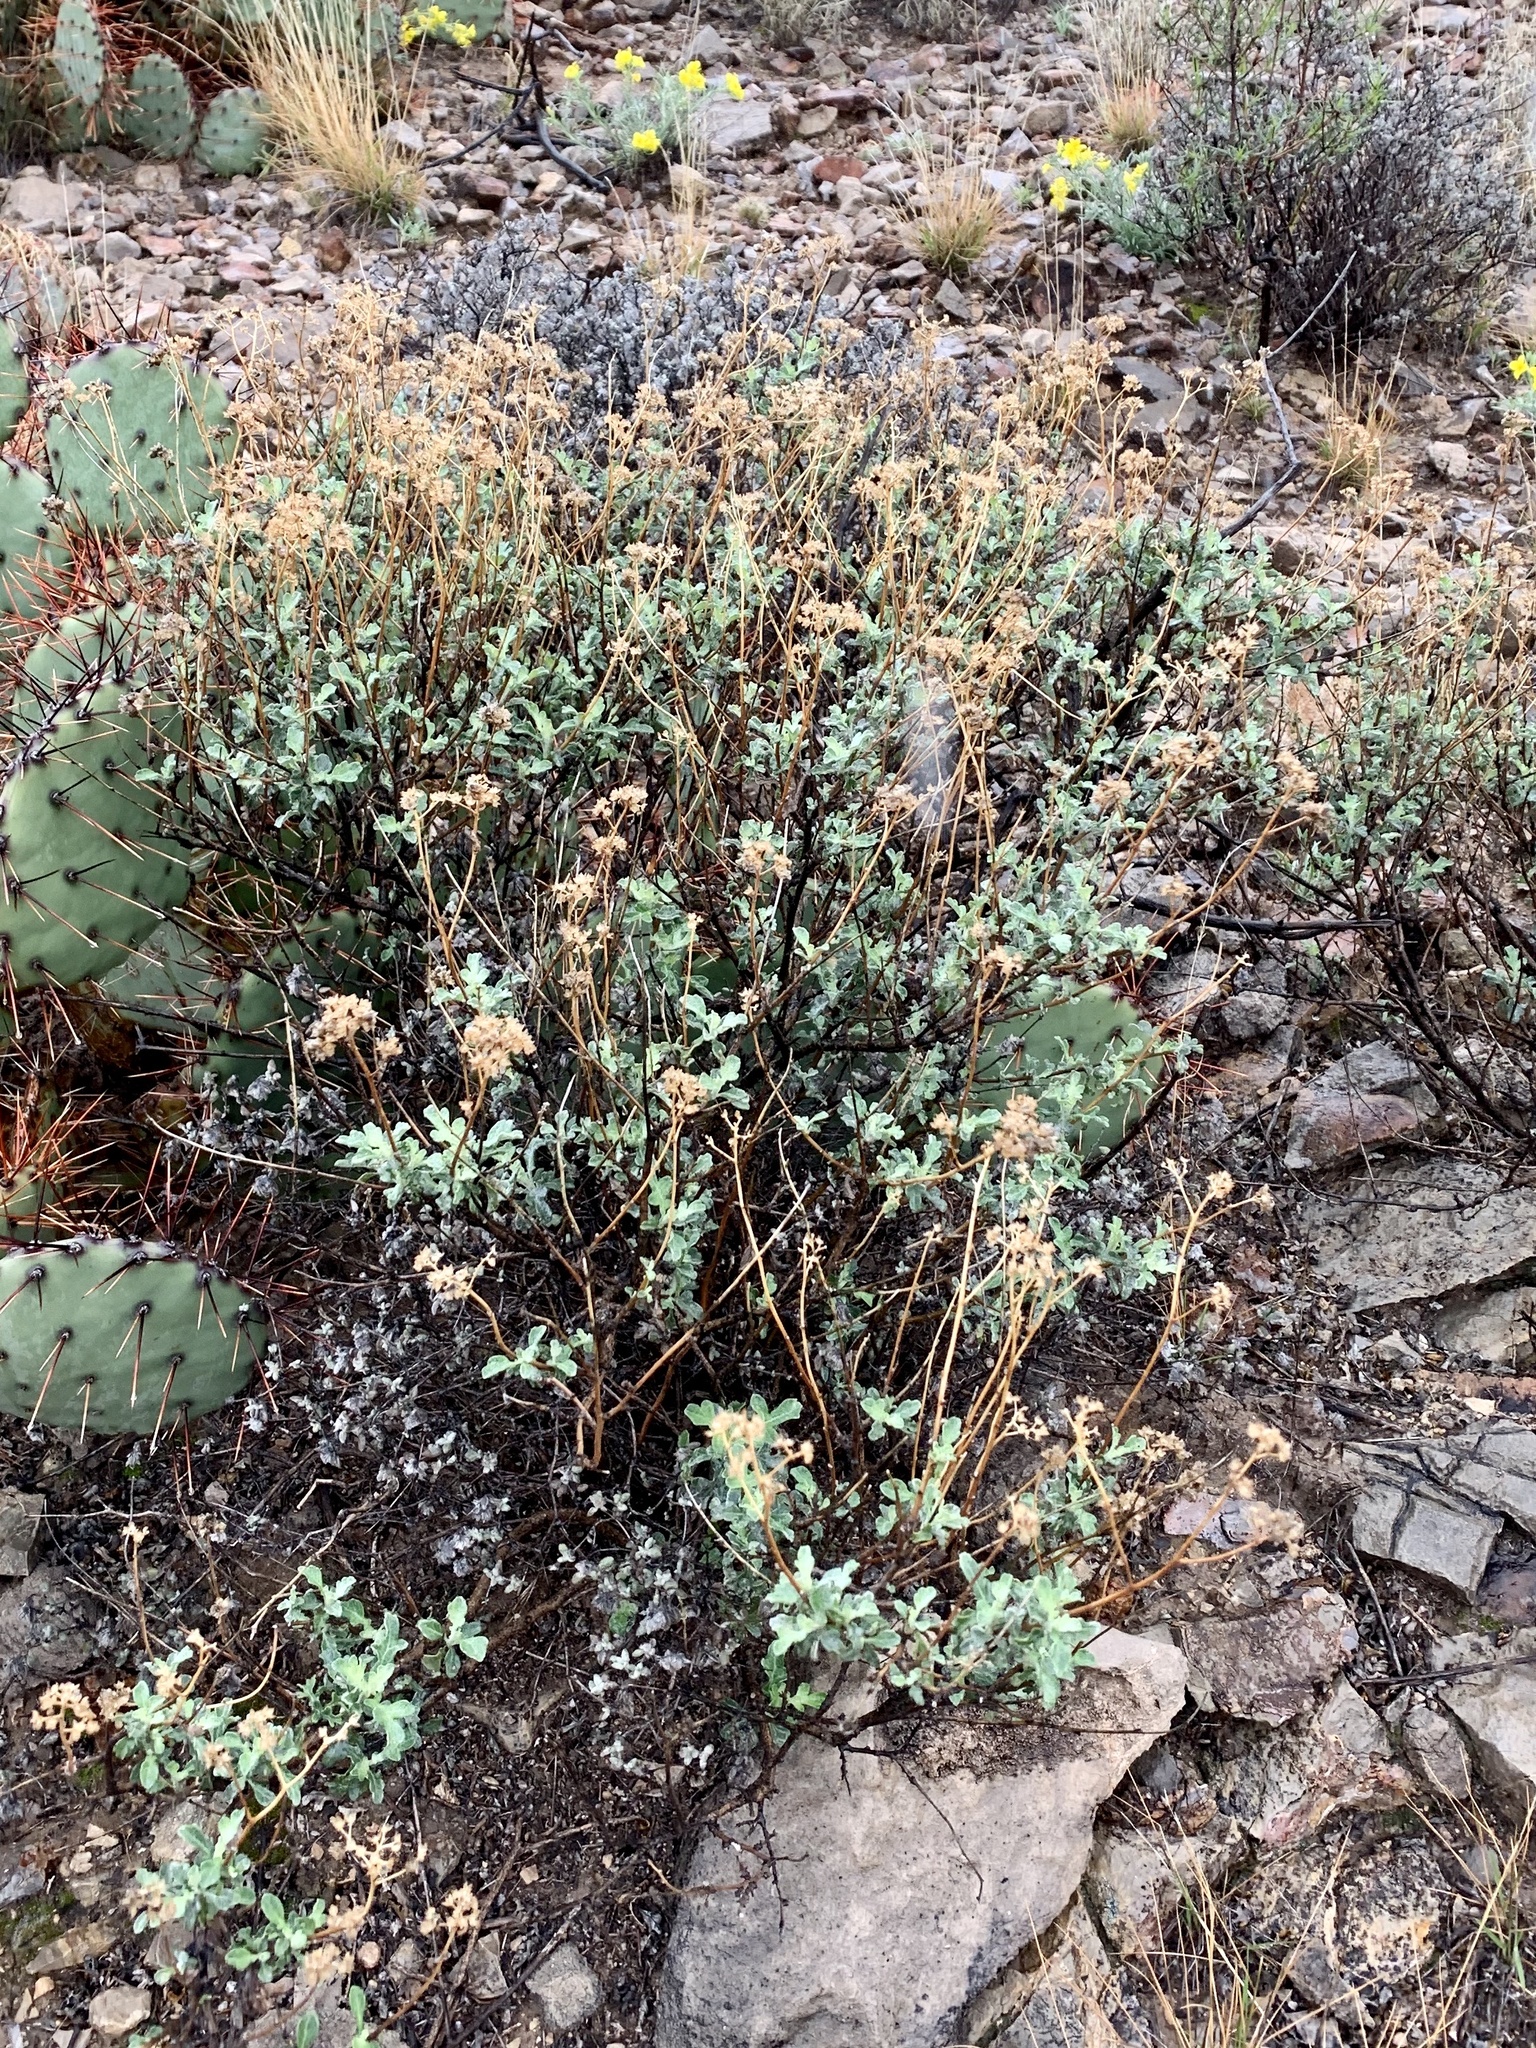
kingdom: Plantae
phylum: Tracheophyta
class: Magnoliopsida
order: Asterales
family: Asteraceae
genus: Parthenium
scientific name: Parthenium incanum
